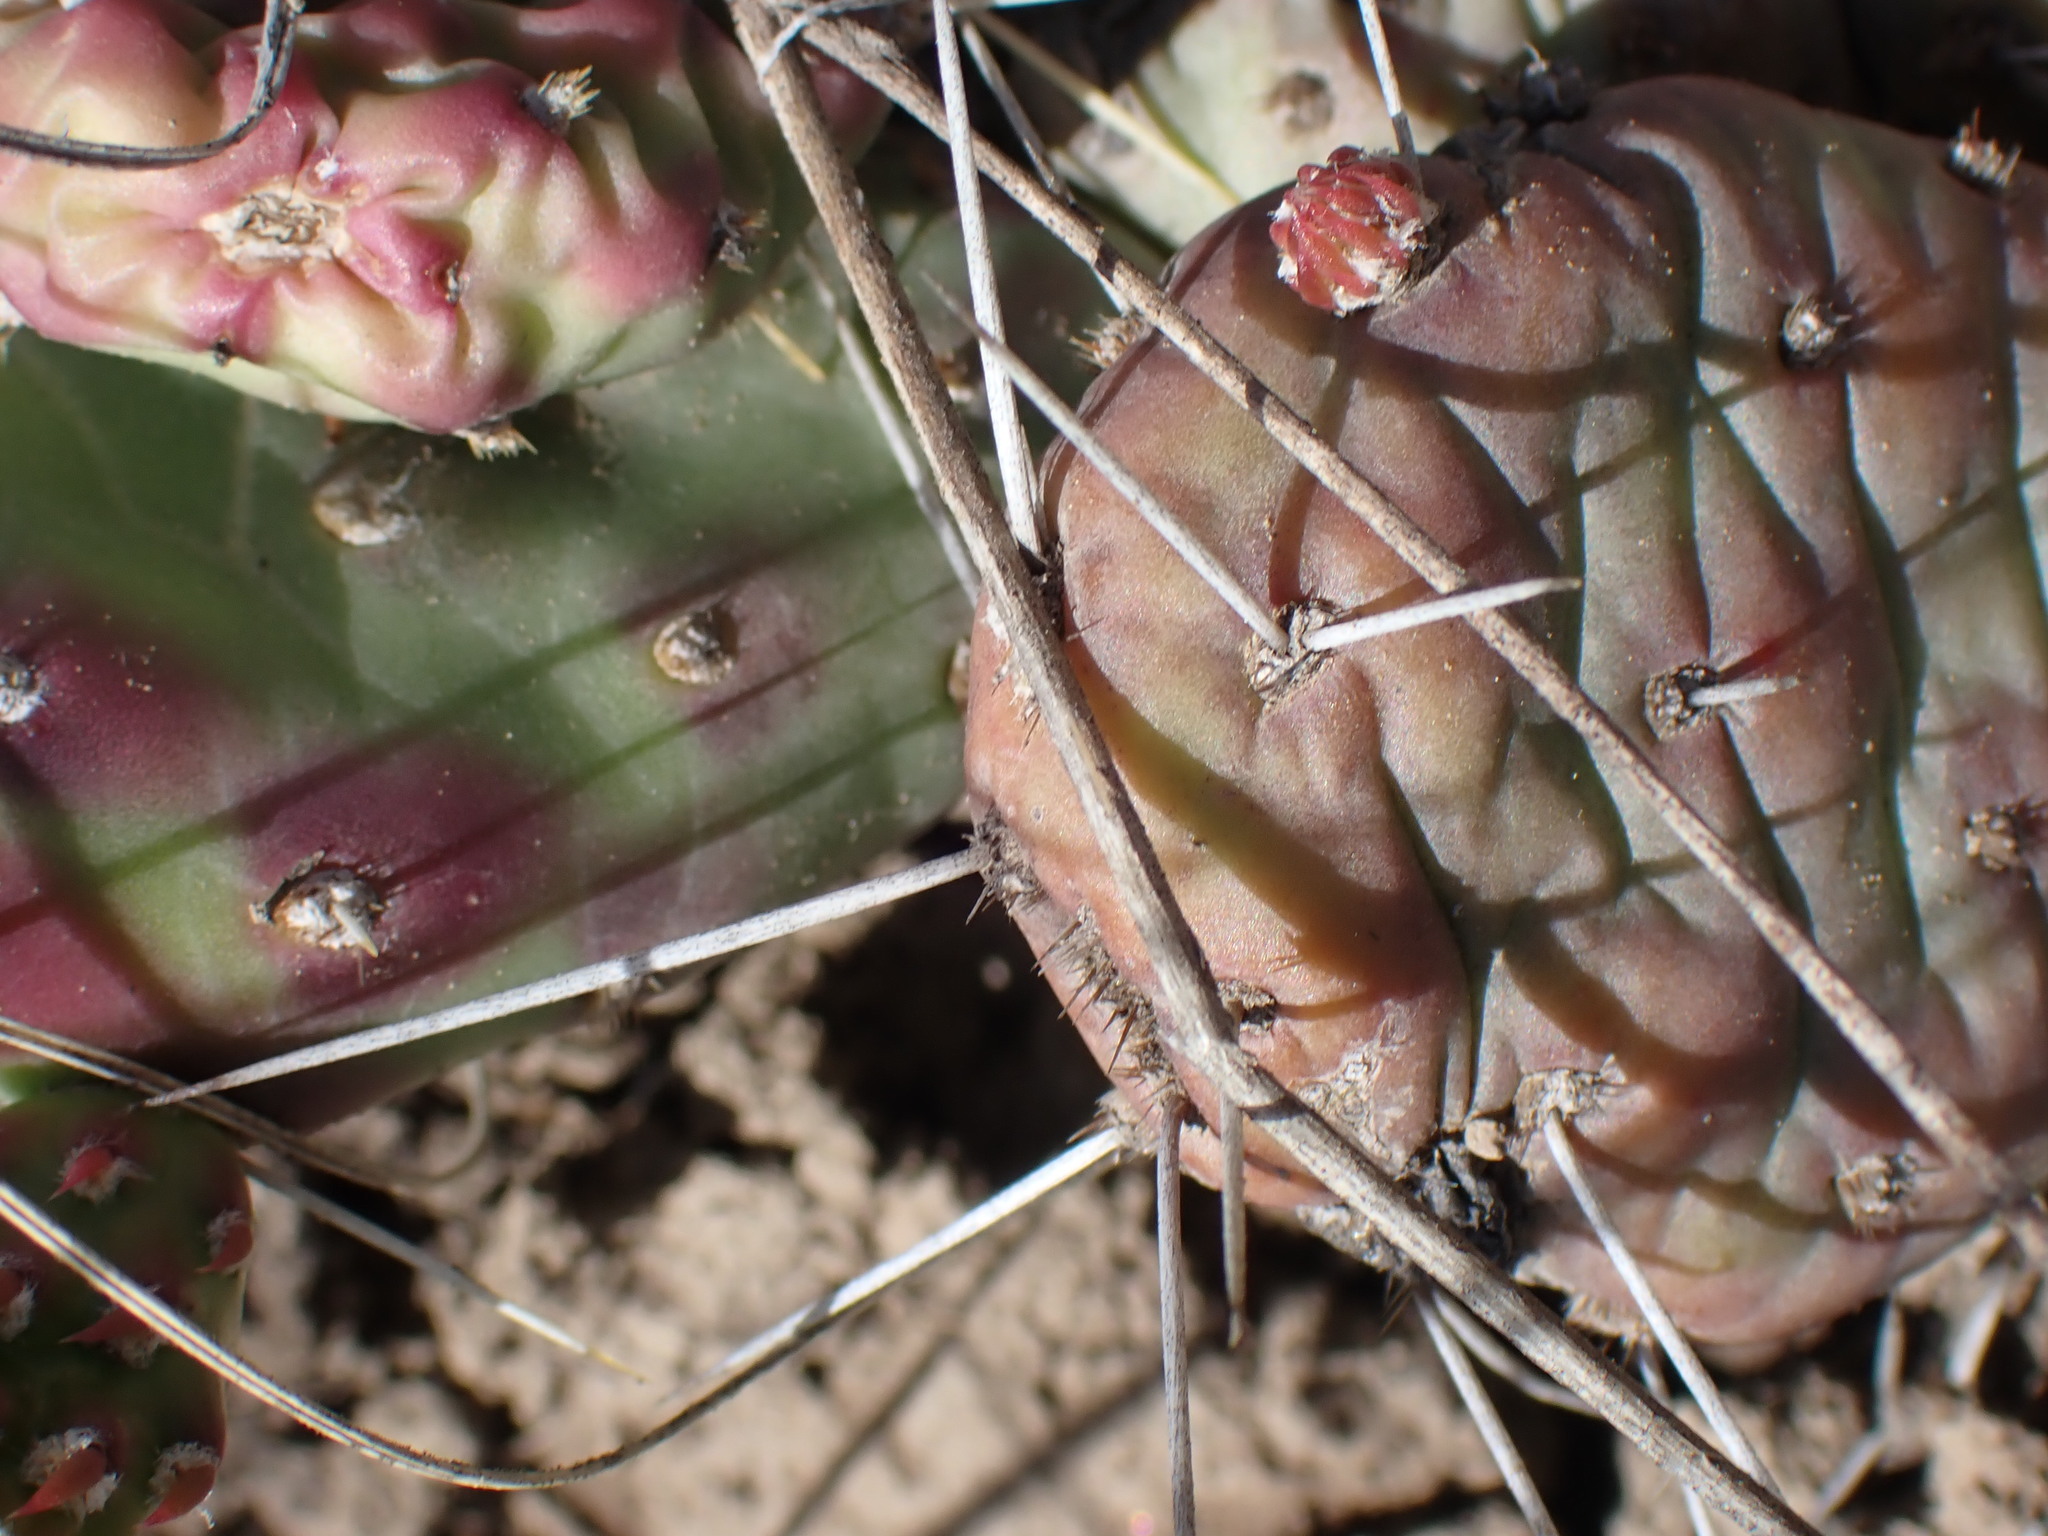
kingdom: Plantae
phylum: Tracheophyta
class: Magnoliopsida
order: Caryophyllales
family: Cactaceae
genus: Opuntia
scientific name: Opuntia fragilis
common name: Brittle cactus
